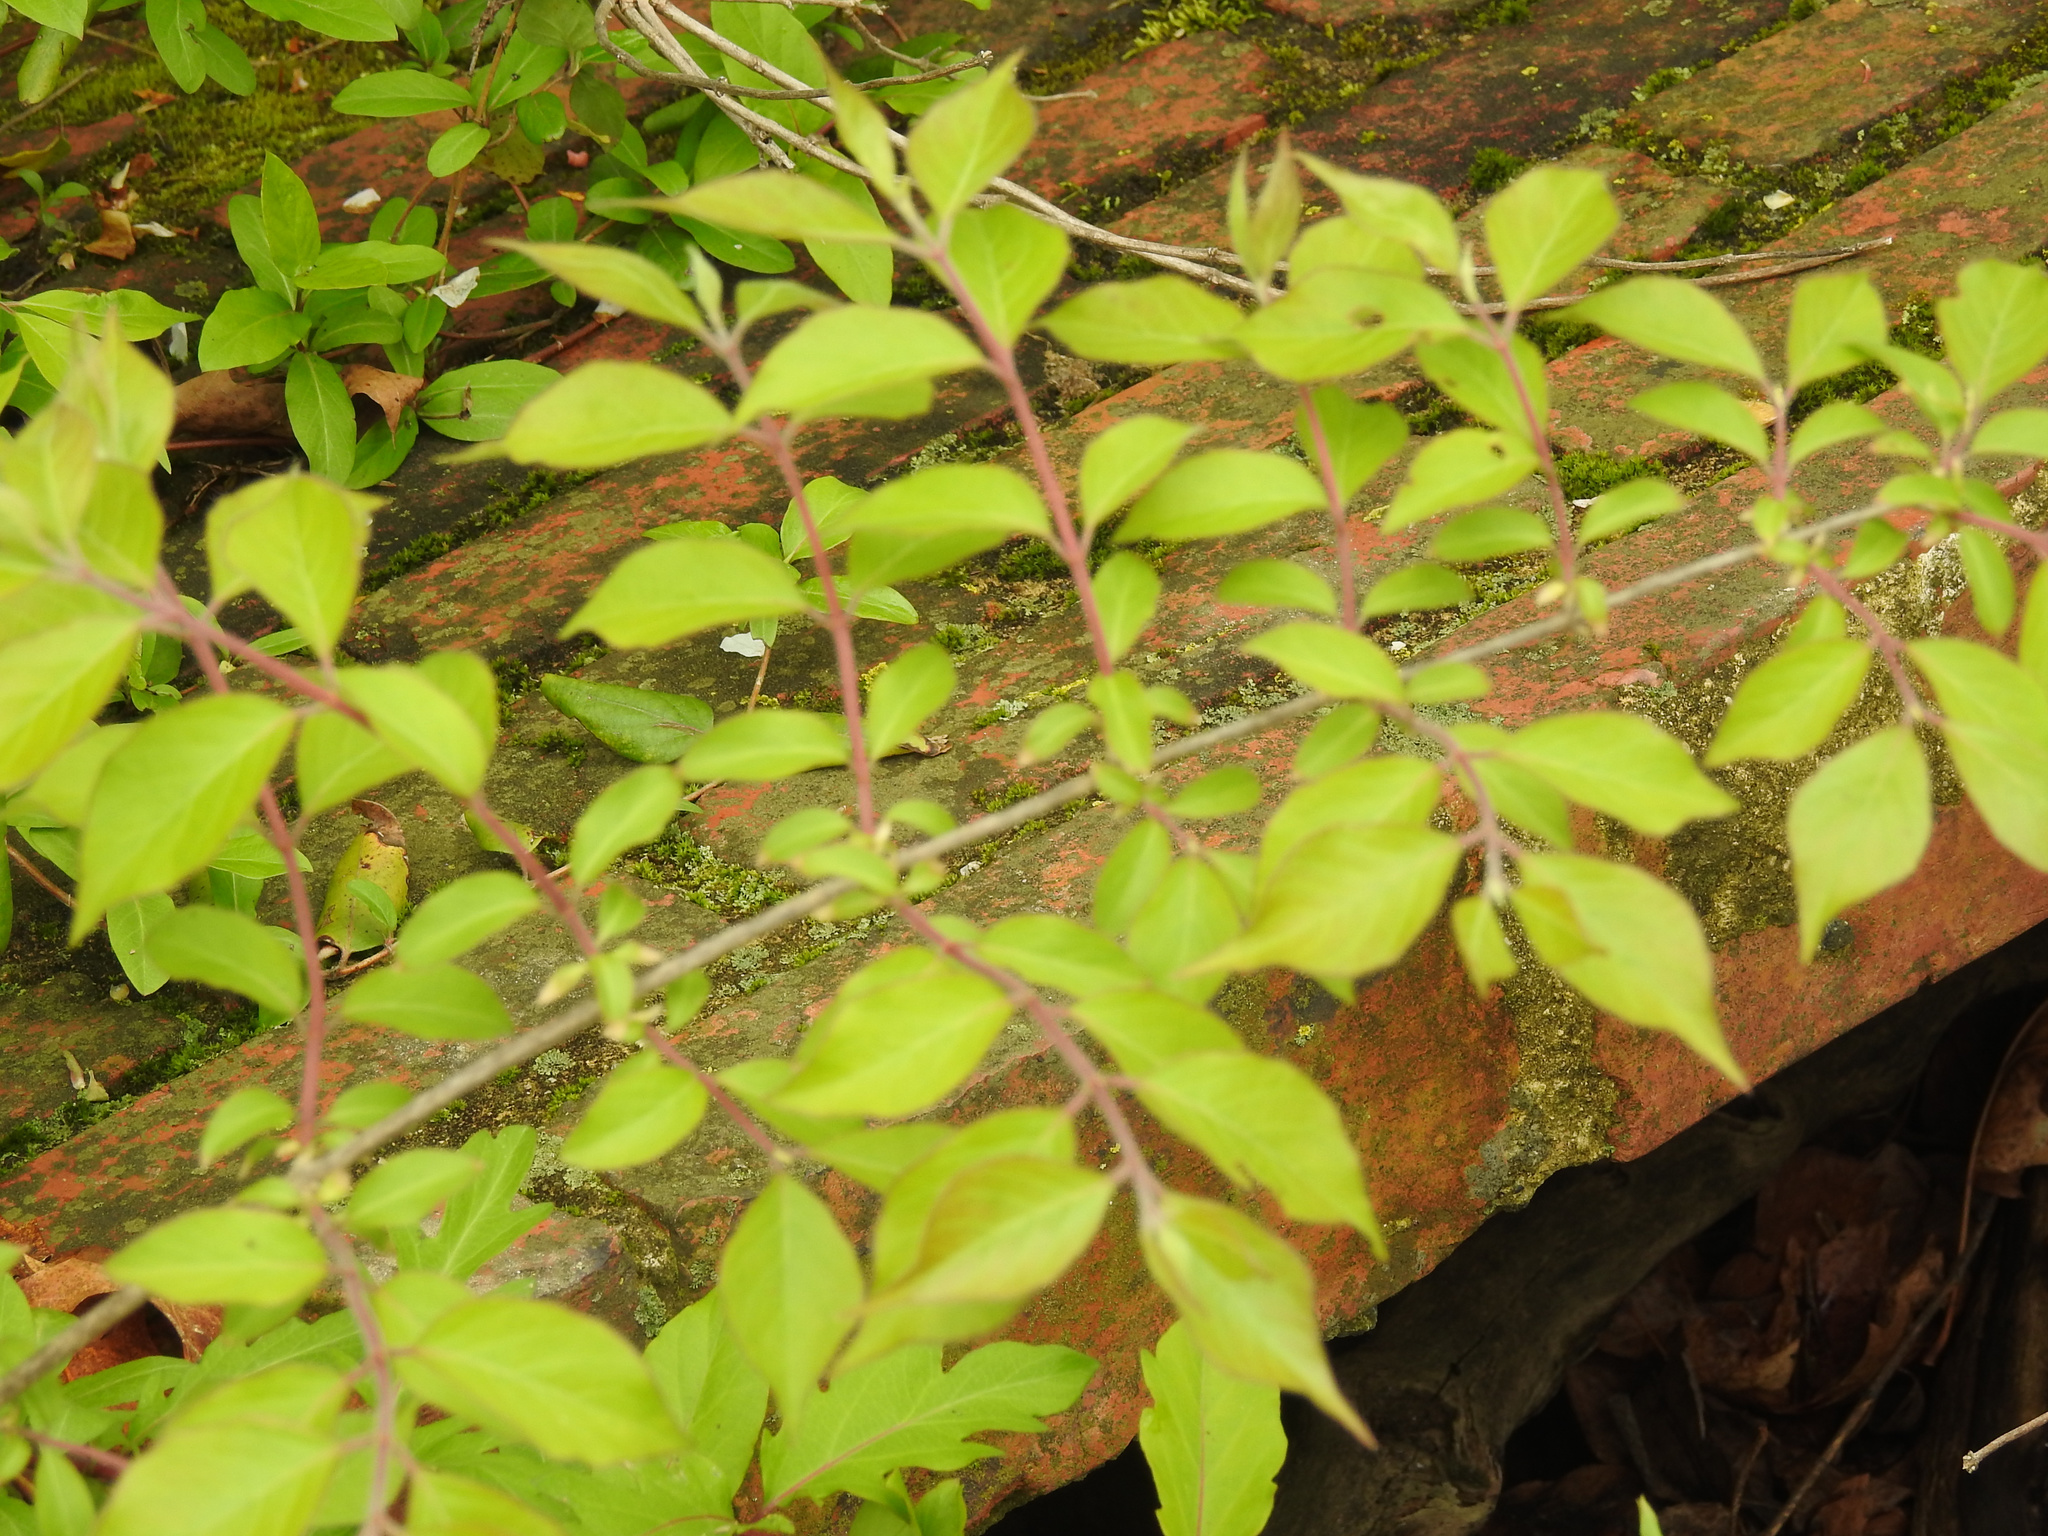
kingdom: Plantae
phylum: Tracheophyta
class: Magnoliopsida
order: Dipsacales
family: Caprifoliaceae
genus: Lonicera
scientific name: Lonicera maackii
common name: Amur honeysuckle
